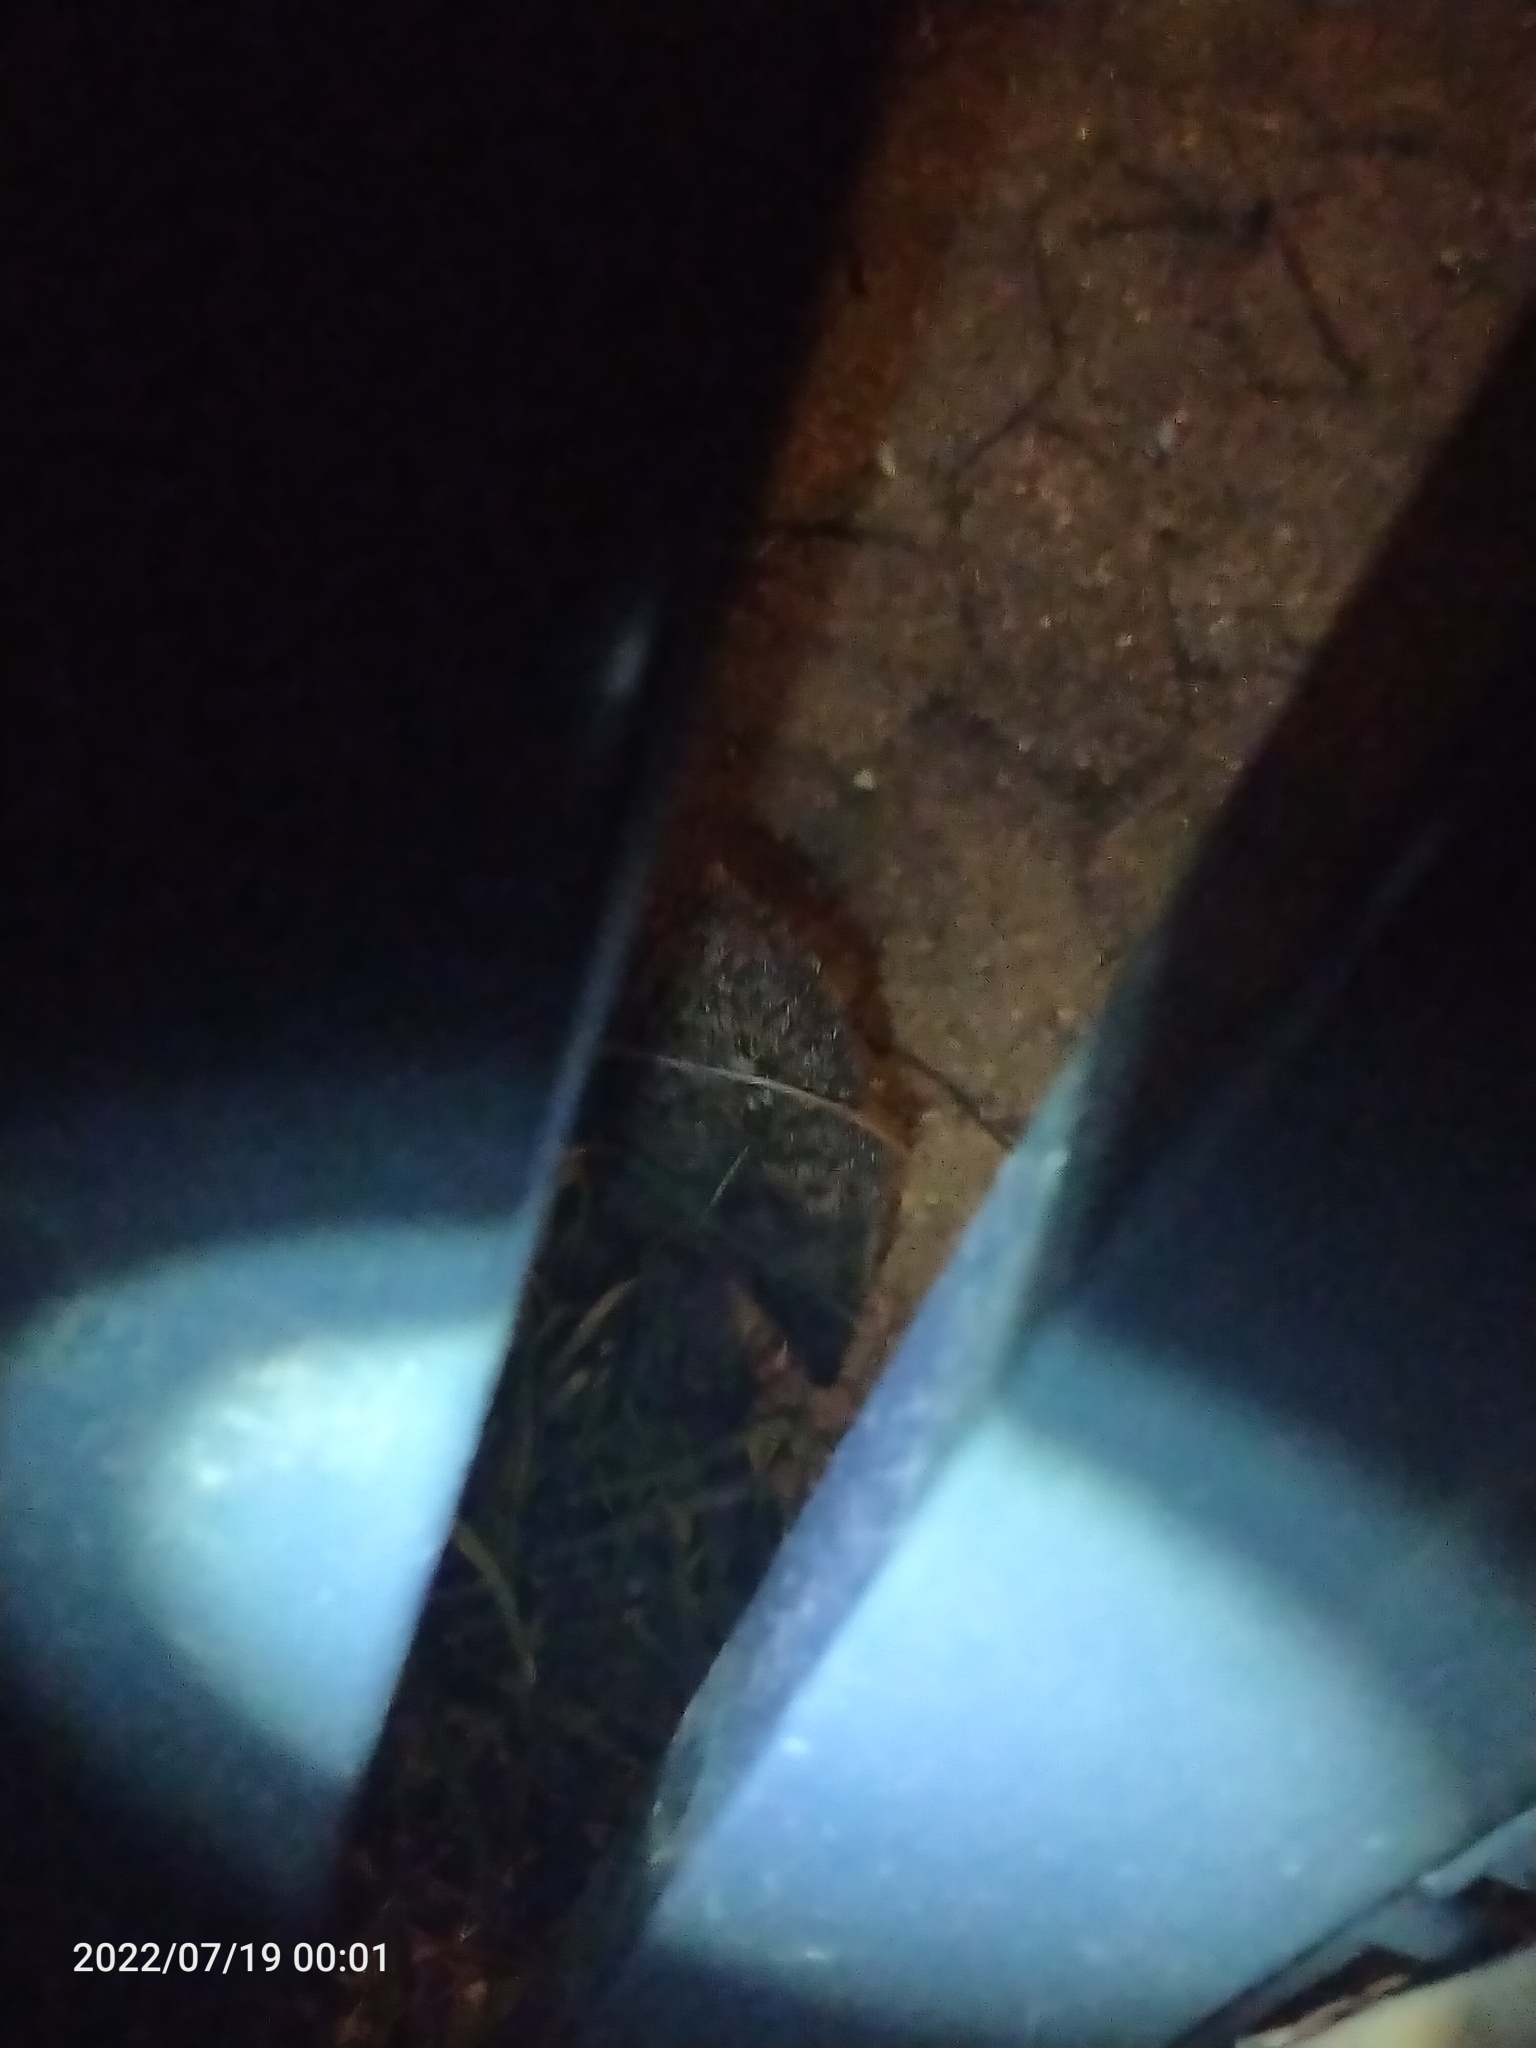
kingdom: Animalia
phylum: Chordata
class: Mammalia
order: Erinaceomorpha
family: Erinaceidae
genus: Erinaceus
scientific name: Erinaceus europaeus
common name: West european hedgehog
